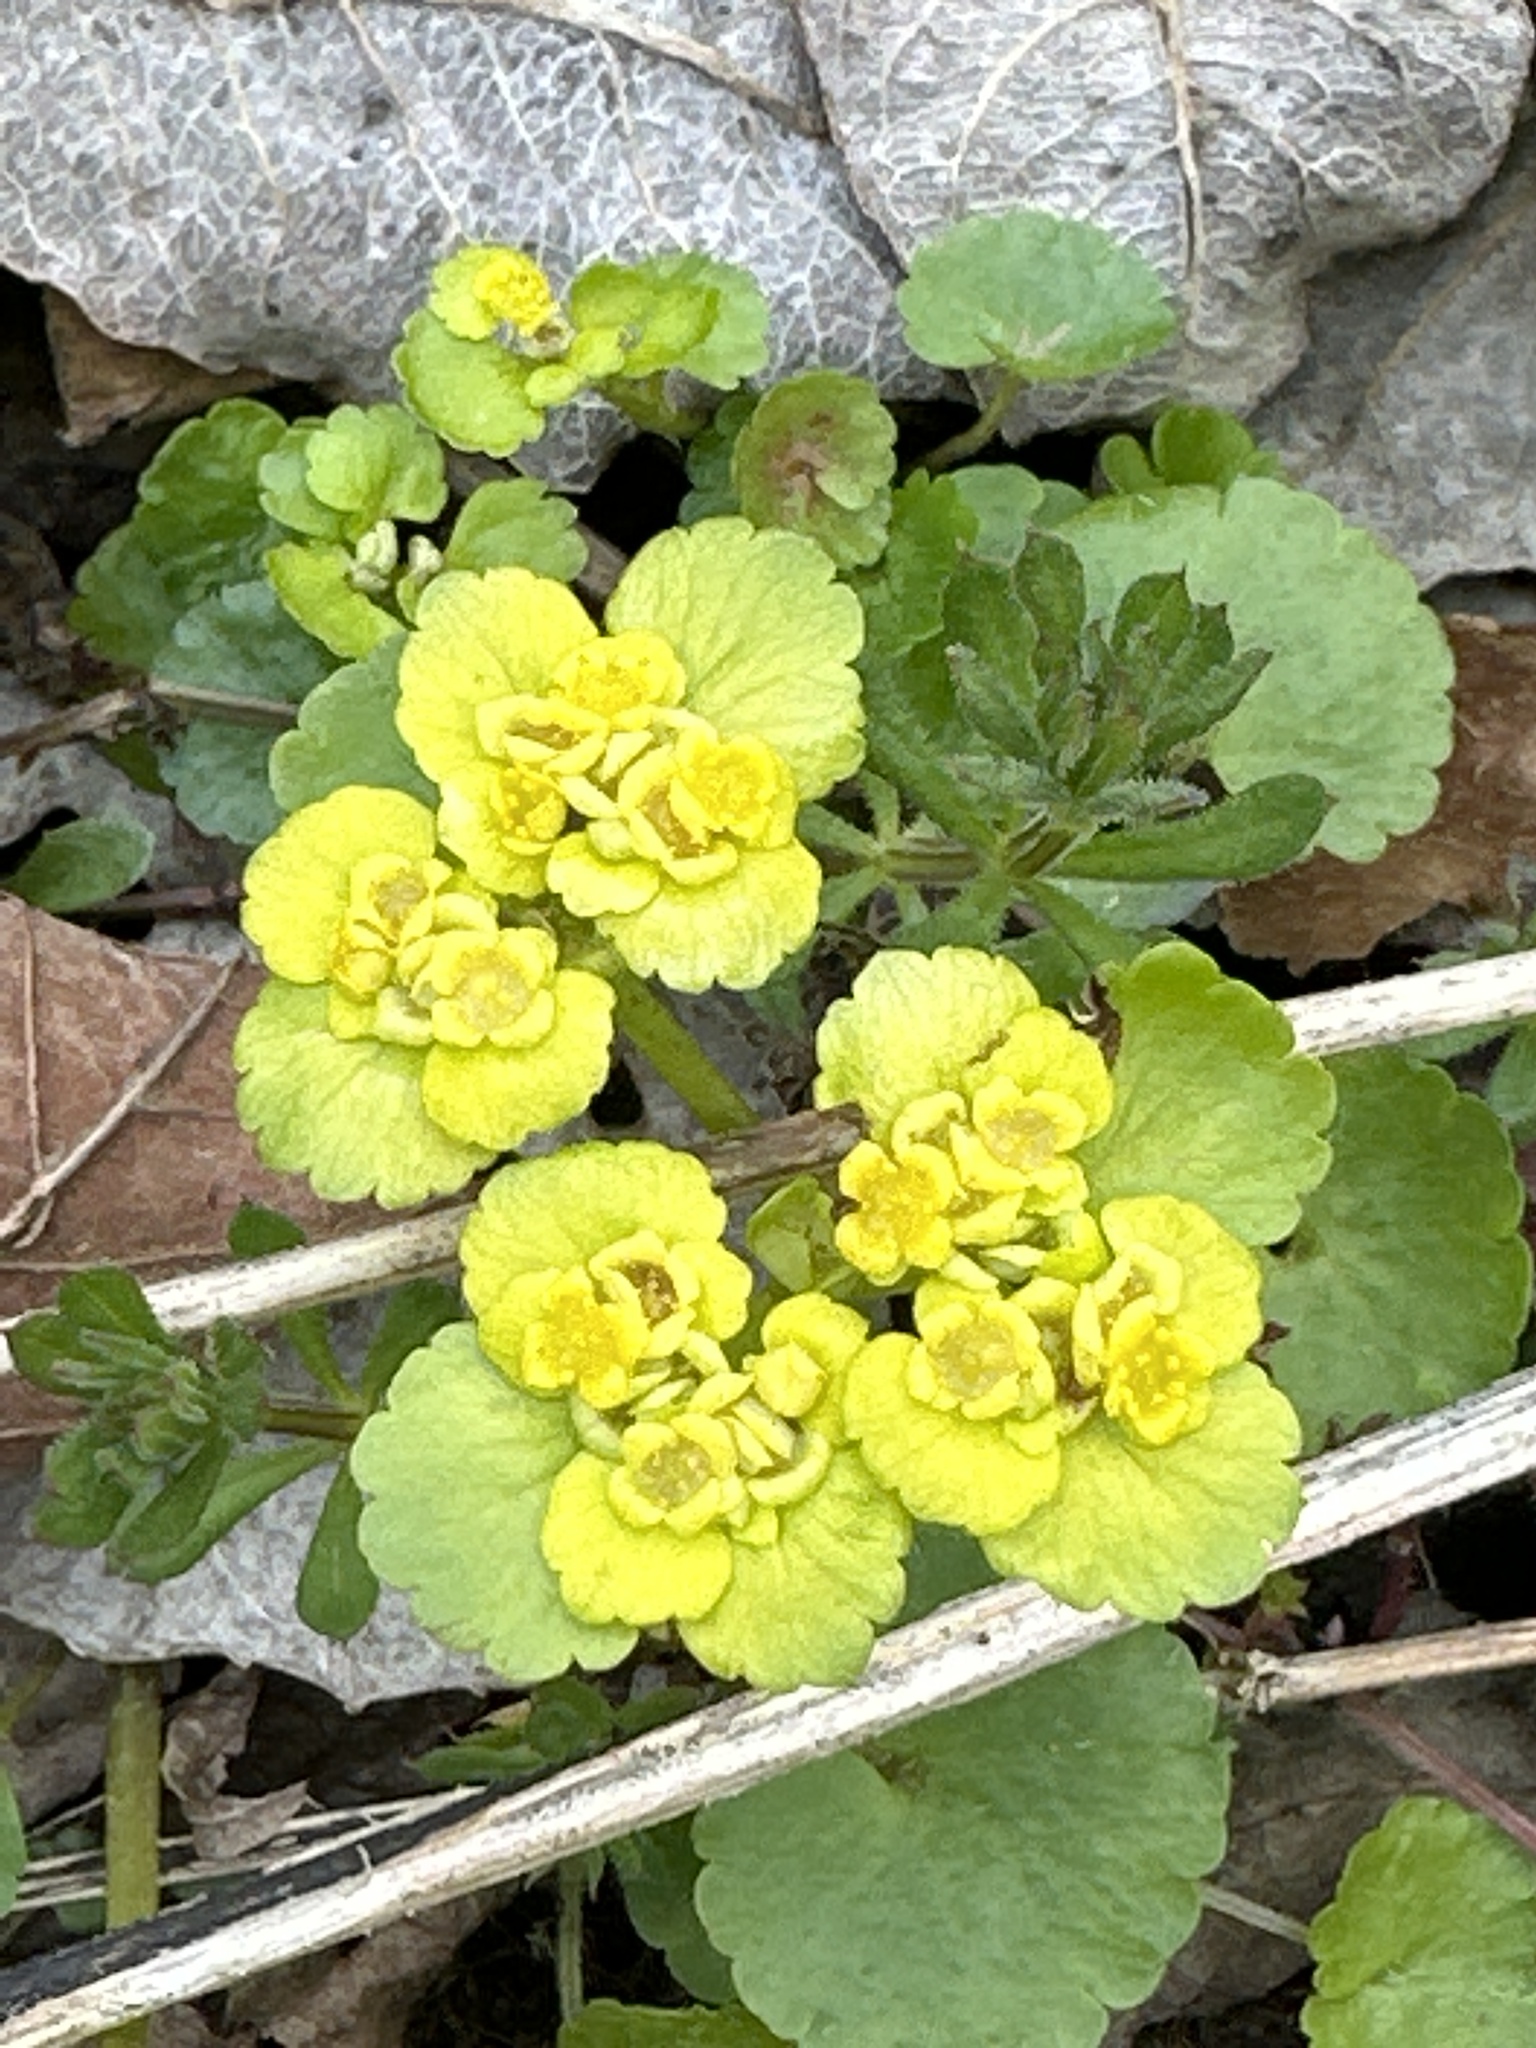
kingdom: Plantae
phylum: Tracheophyta
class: Magnoliopsida
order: Saxifragales
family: Saxifragaceae
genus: Chrysosplenium
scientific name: Chrysosplenium alternifolium
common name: Alternate-leaved golden-saxifrage
